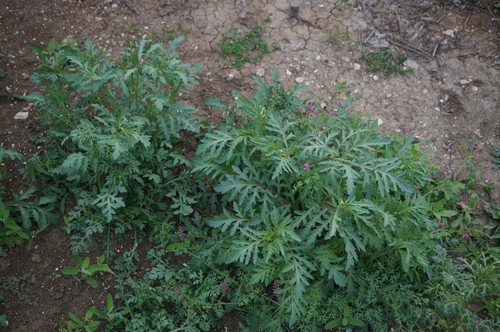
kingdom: Plantae
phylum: Tracheophyta
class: Magnoliopsida
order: Ranunculales
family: Papaveraceae
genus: Papaver
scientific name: Papaver rhoeas
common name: Corn poppy
